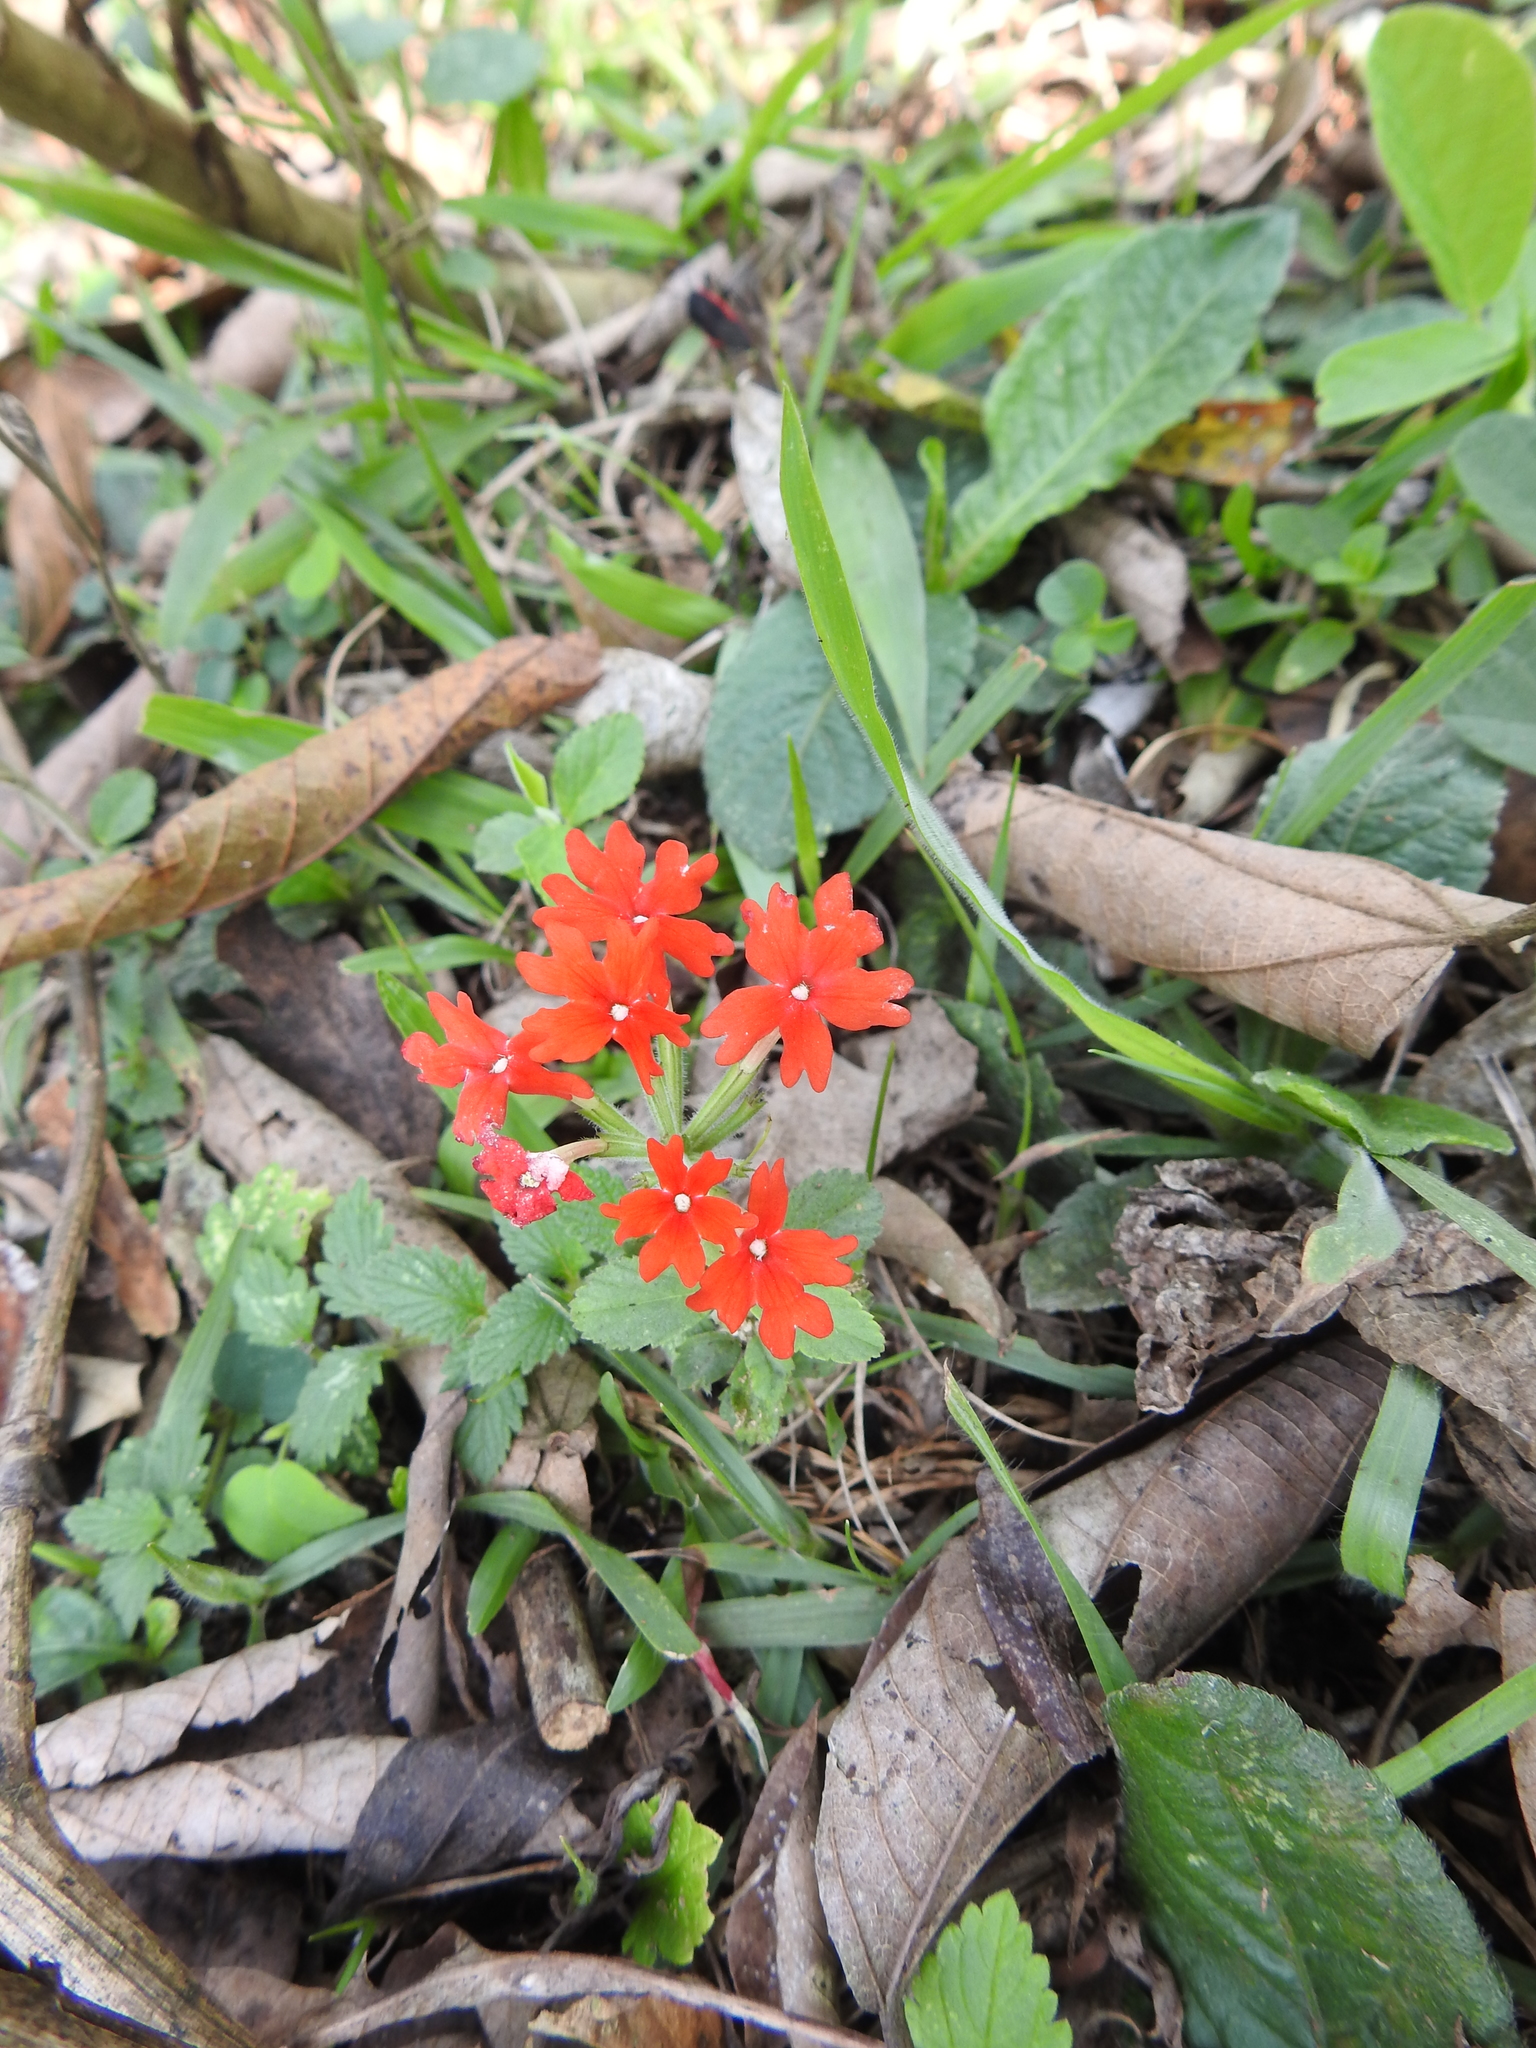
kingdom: Plantae
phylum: Tracheophyta
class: Magnoliopsida
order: Lamiales
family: Verbenaceae
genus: Verbena
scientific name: Verbena peruviana
